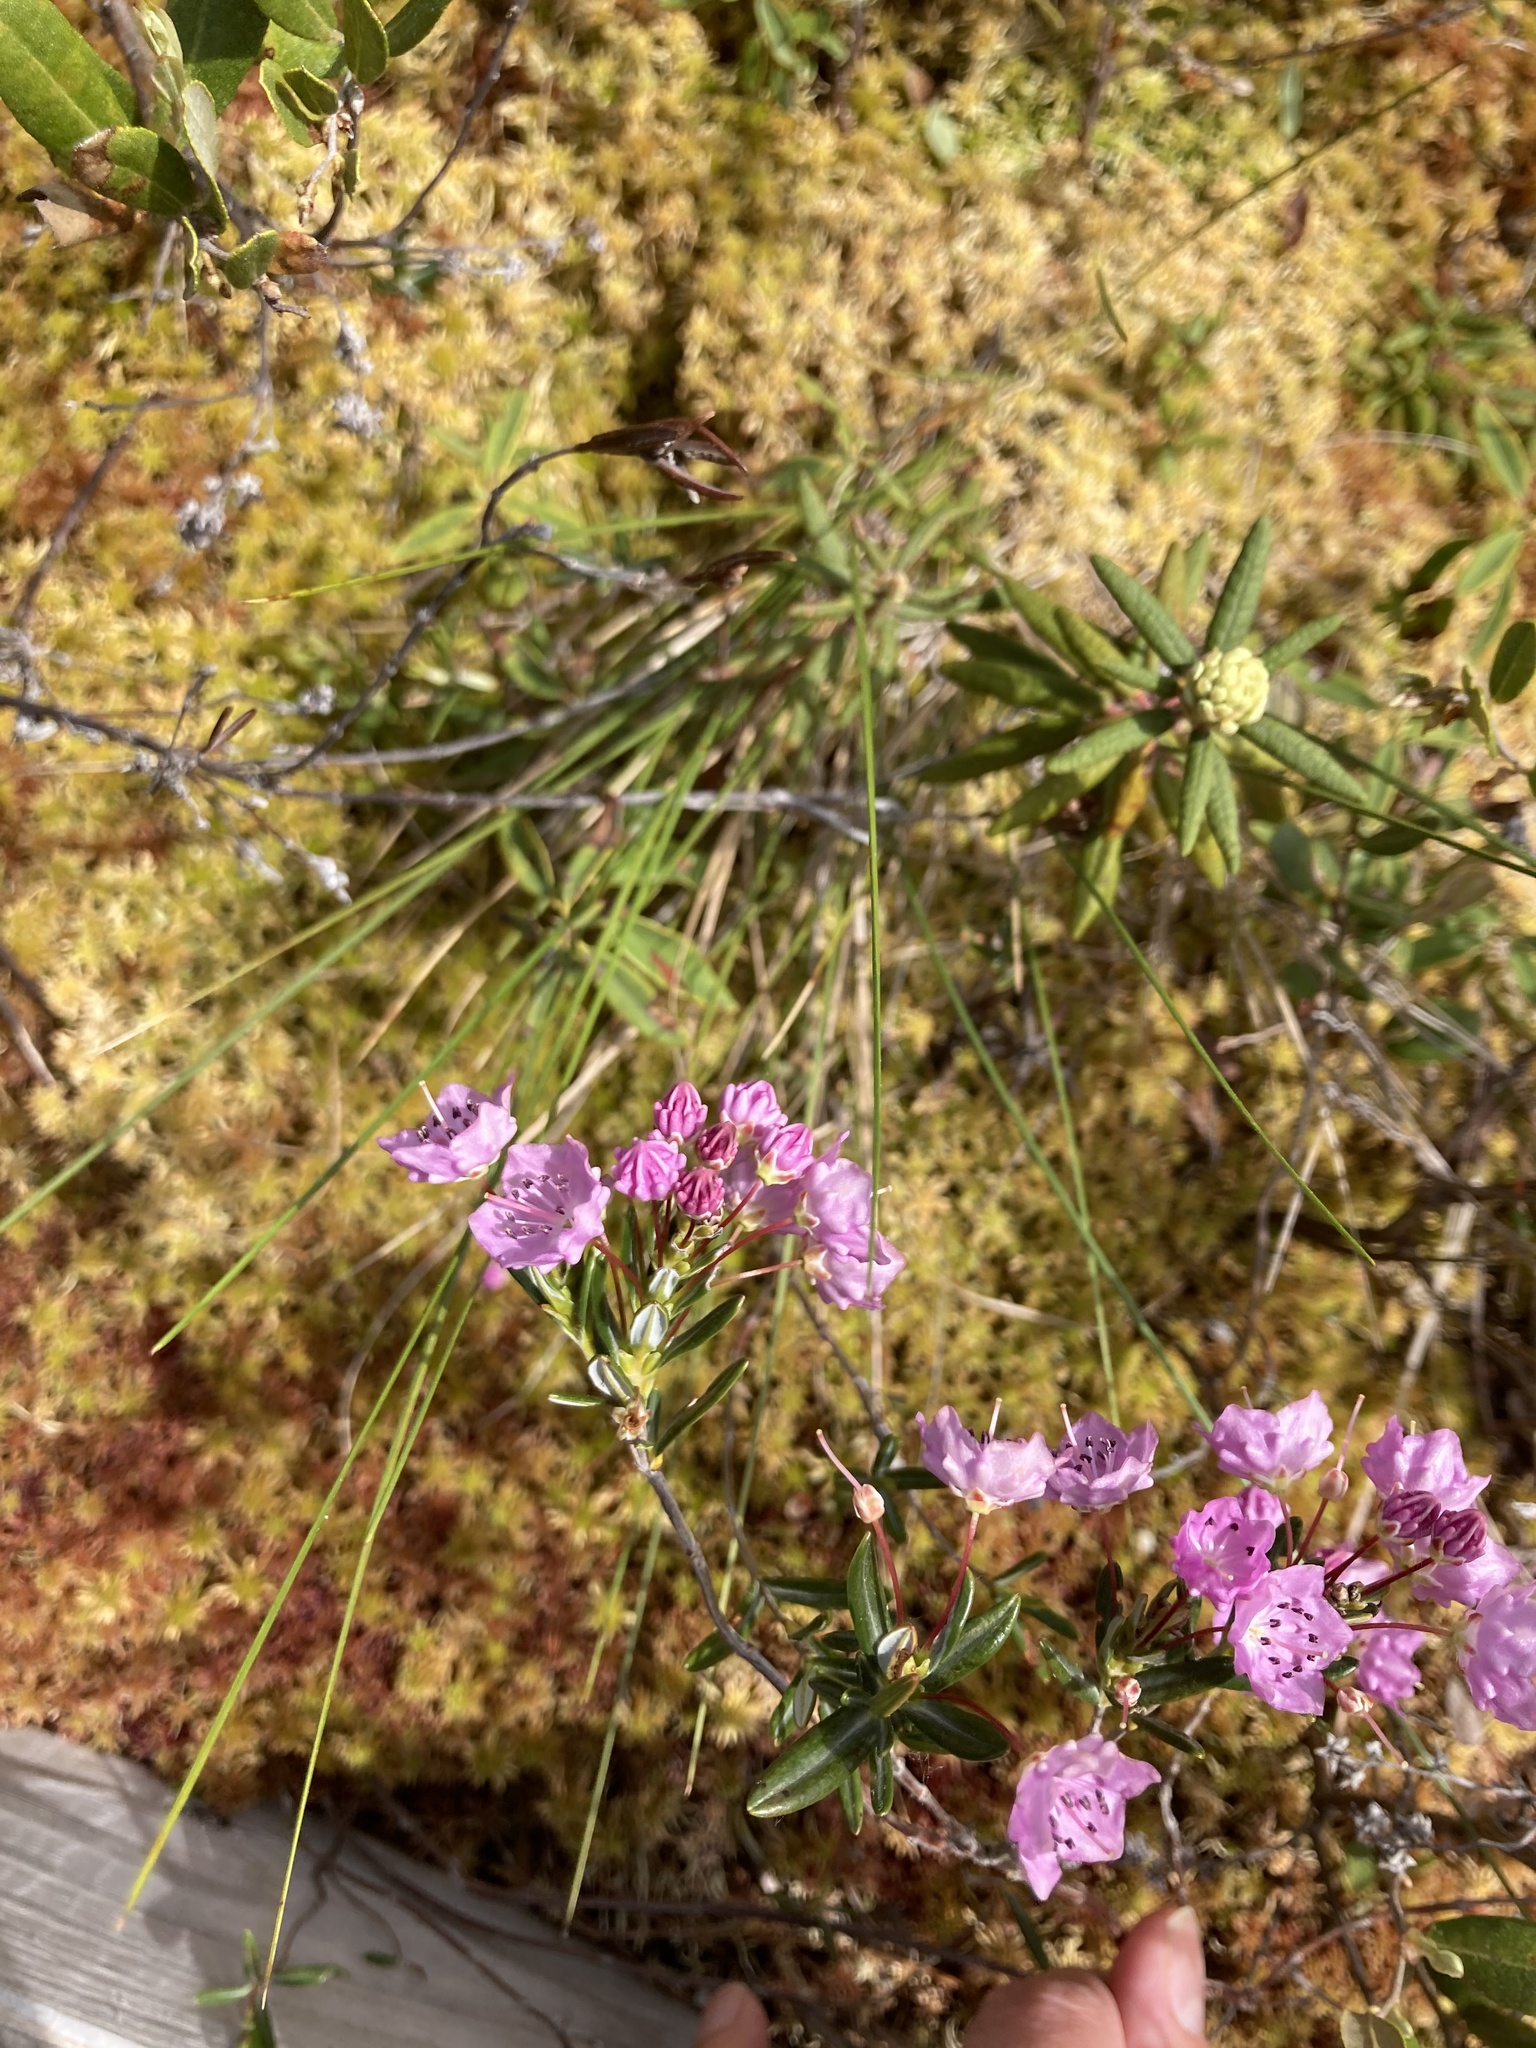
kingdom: Plantae
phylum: Tracheophyta
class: Magnoliopsida
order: Ericales
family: Ericaceae
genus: Kalmia
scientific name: Kalmia polifolia
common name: Bog-laurel
